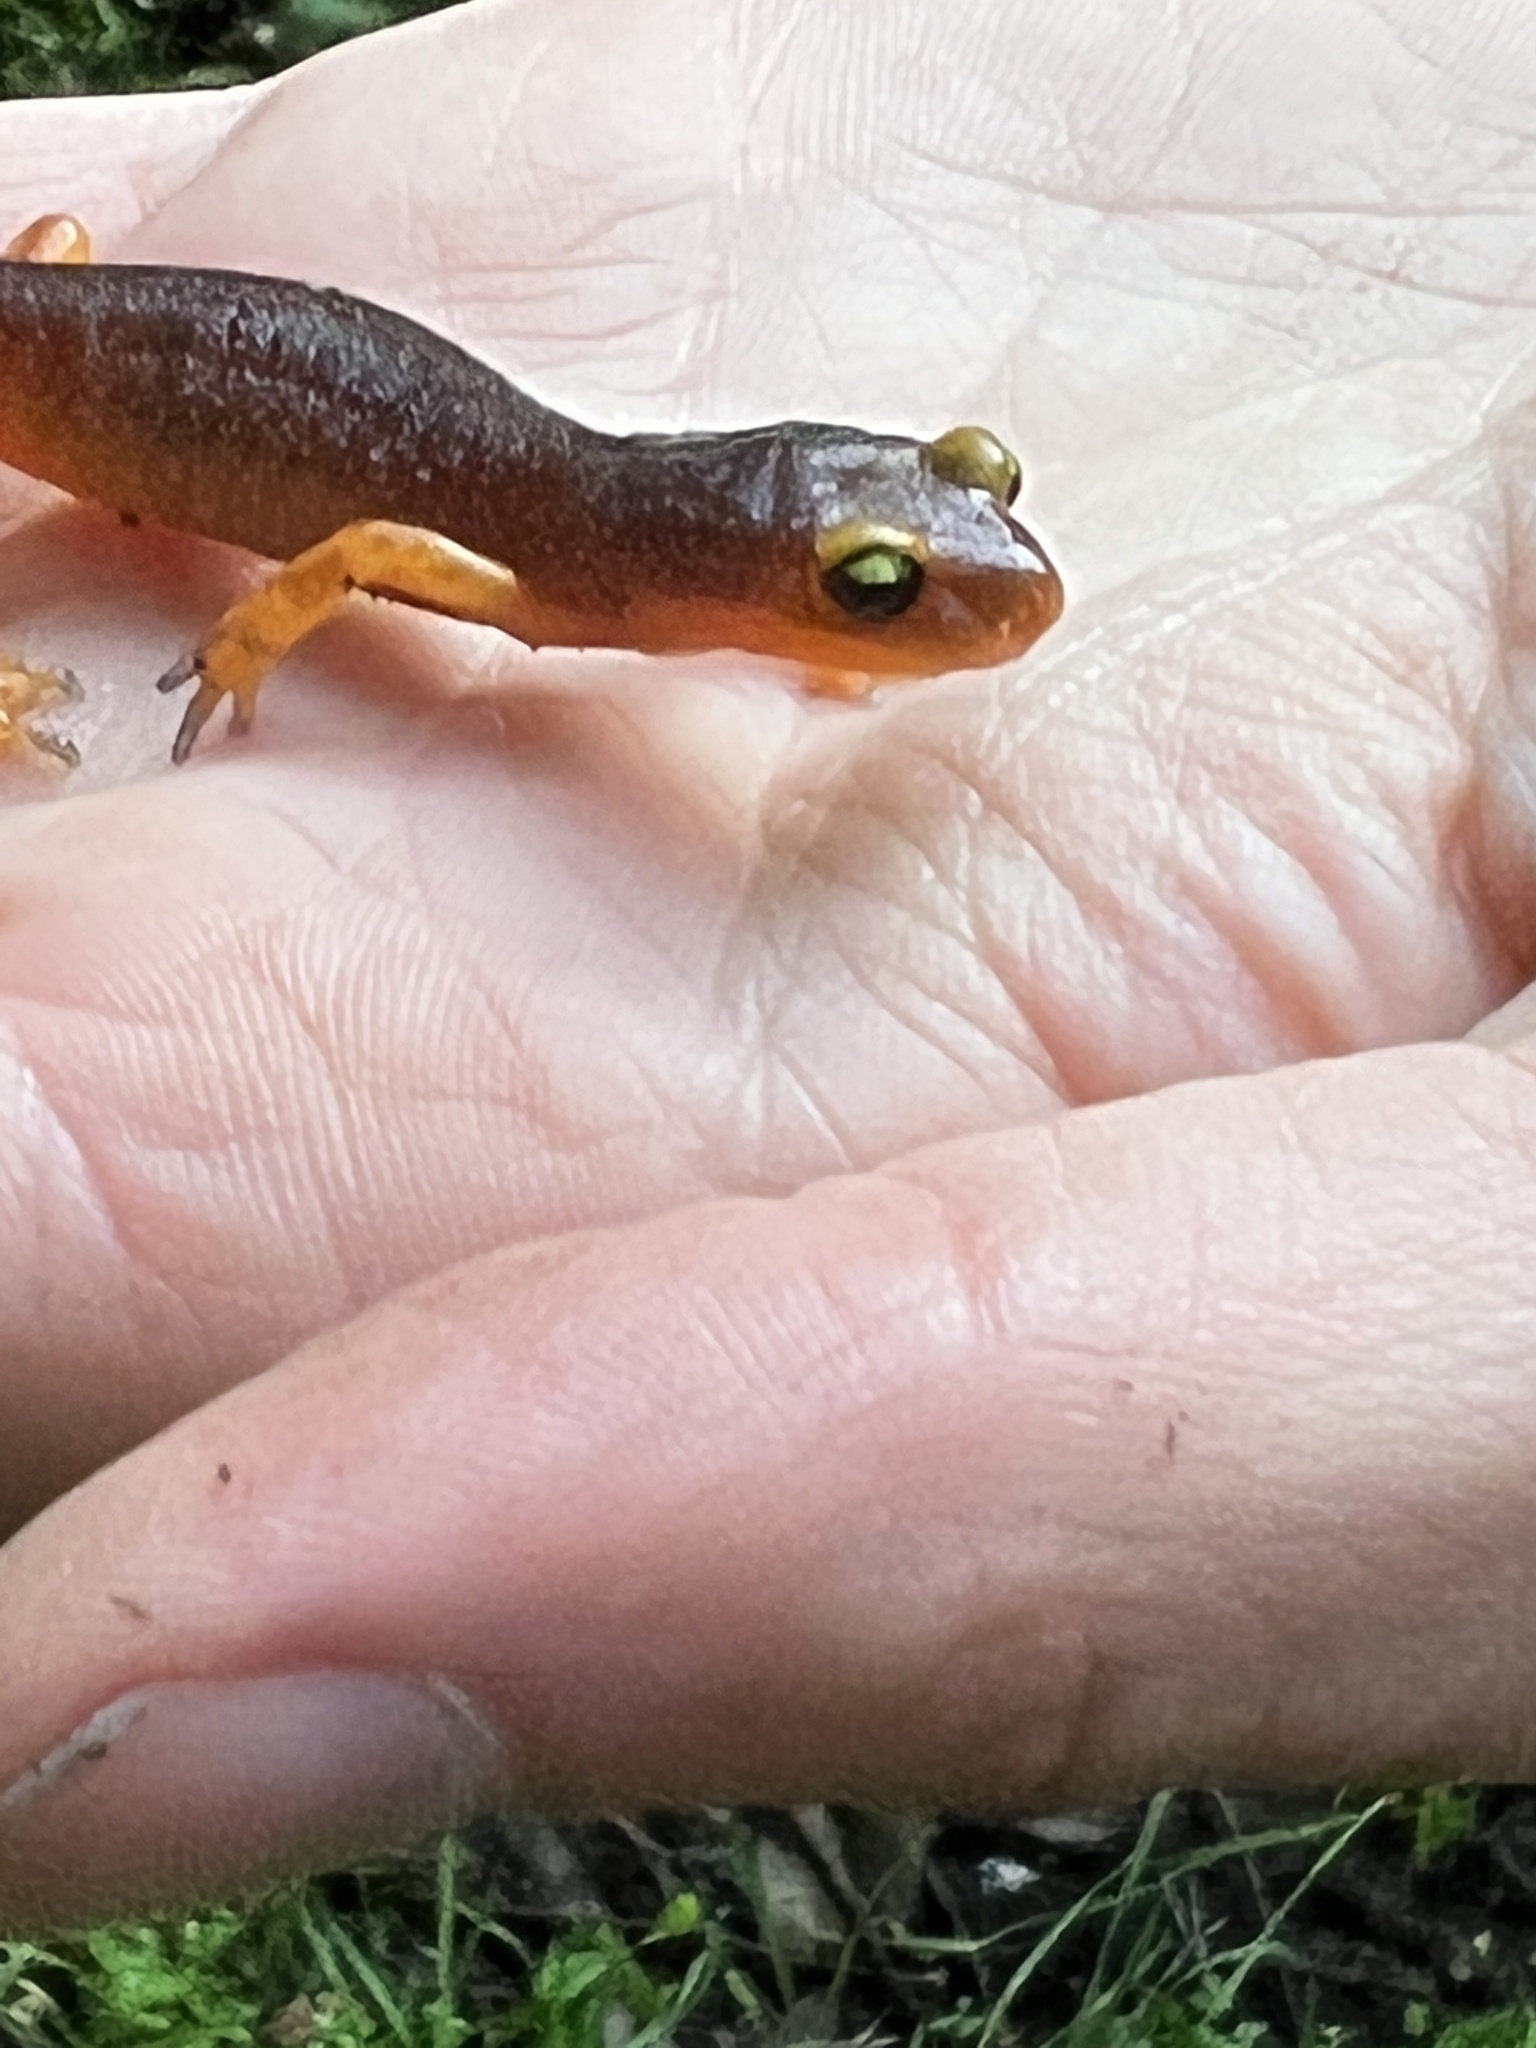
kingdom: Animalia
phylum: Chordata
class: Amphibia
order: Caudata
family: Plethodontidae
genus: Ensatina
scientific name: Ensatina eschscholtzii
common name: Ensatina
